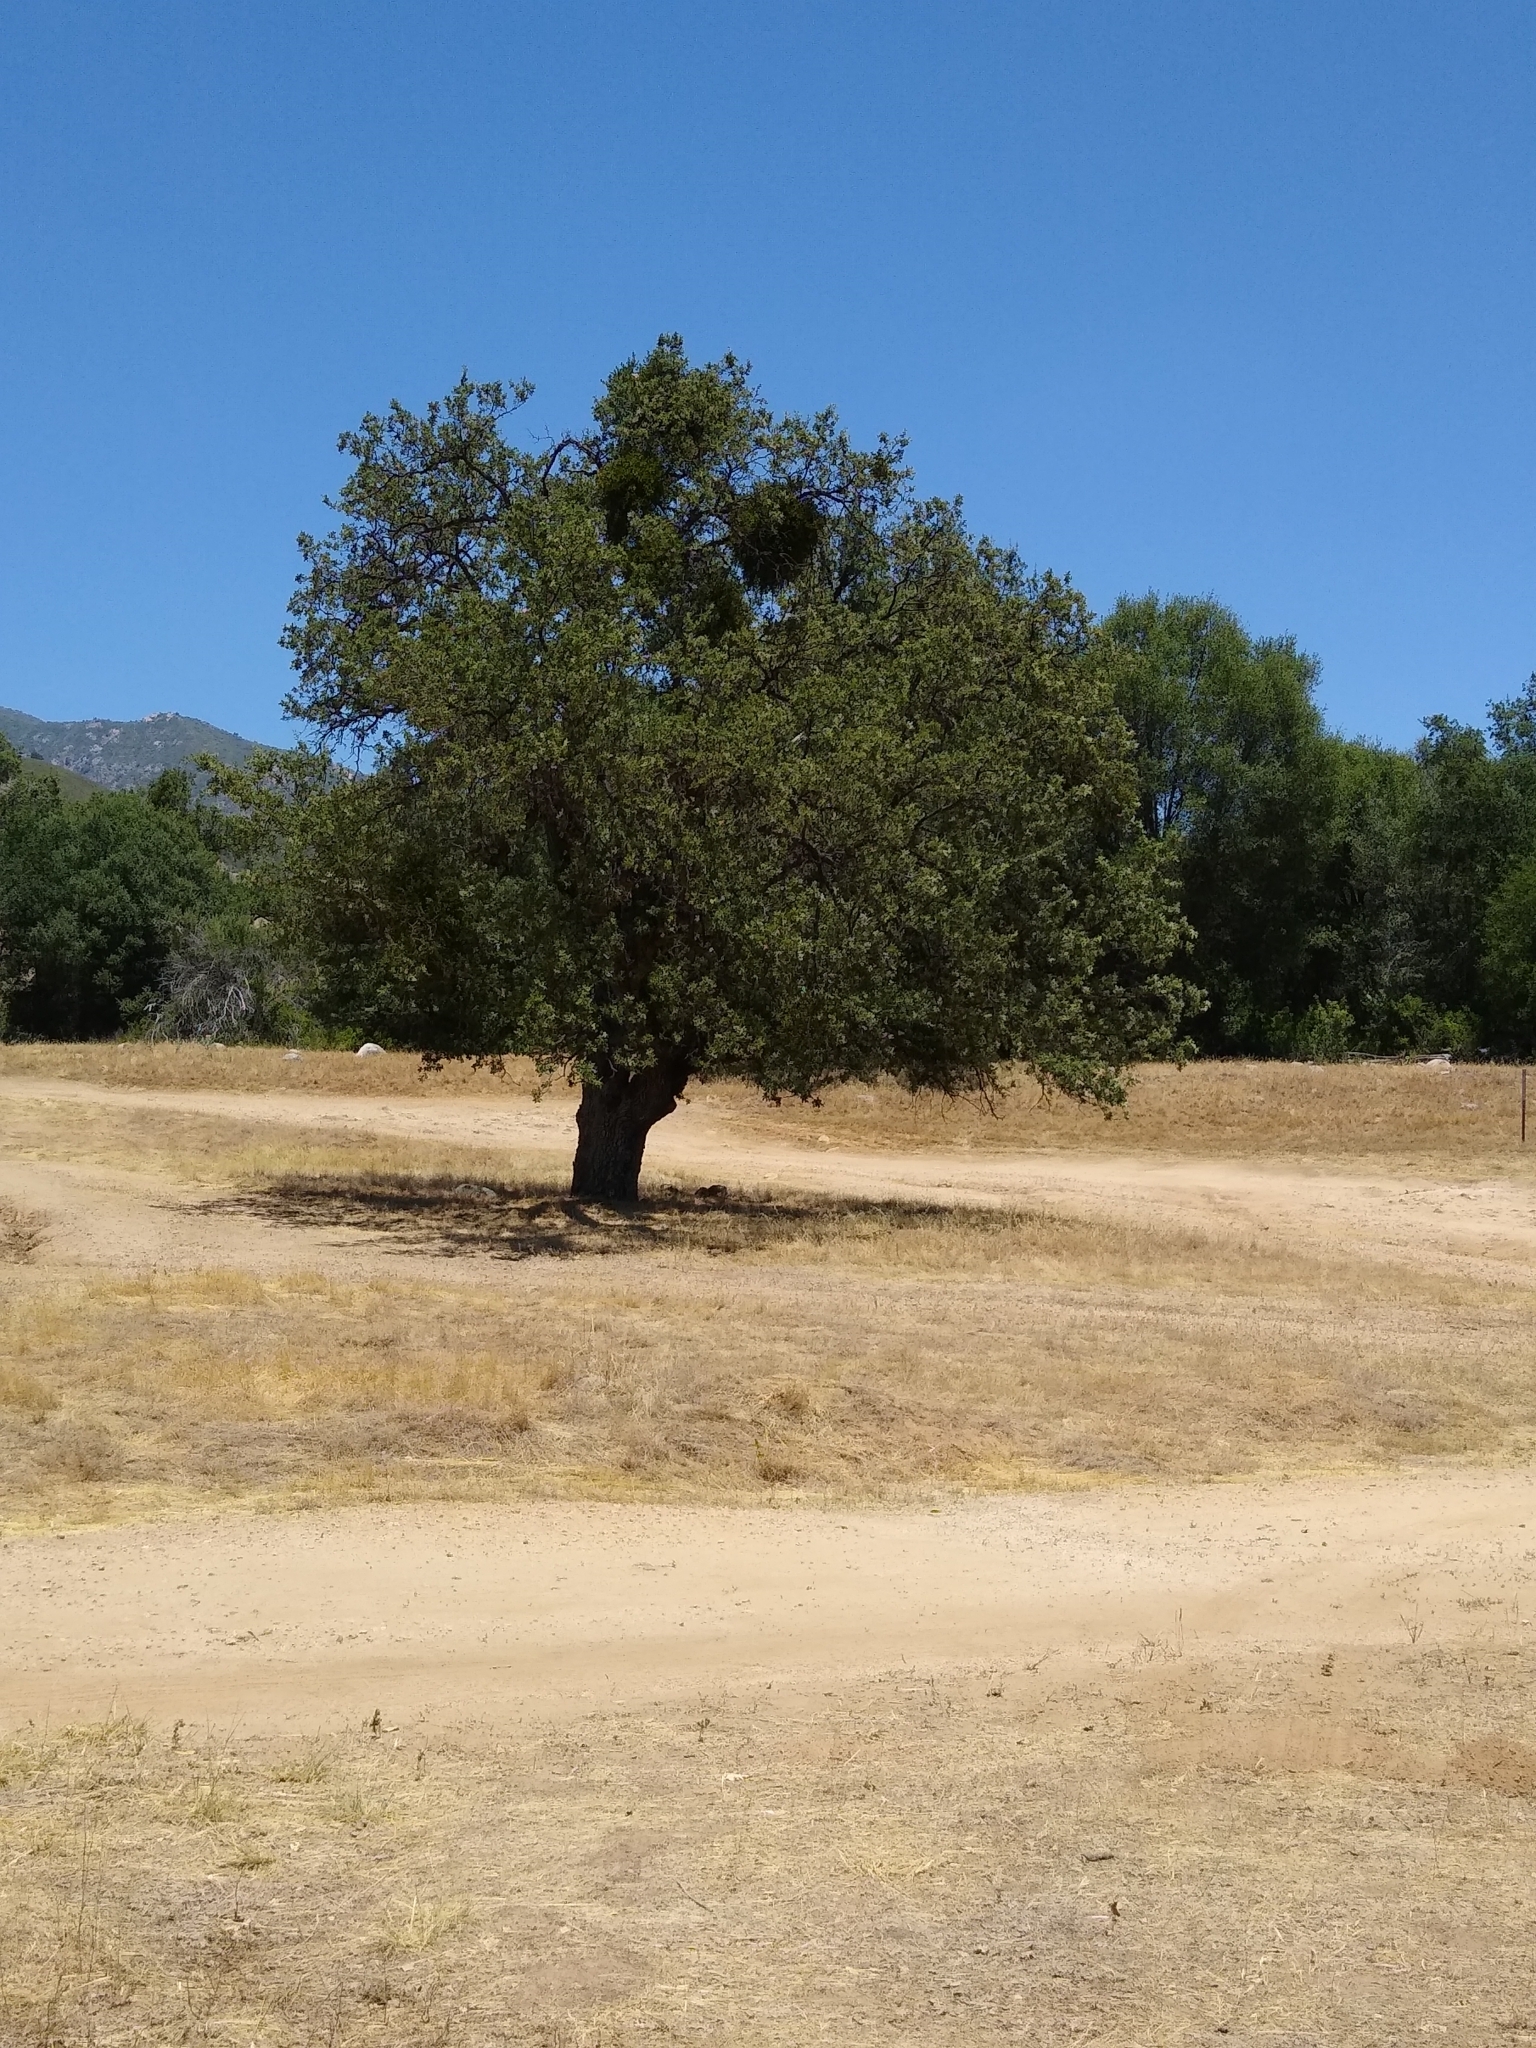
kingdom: Plantae
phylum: Tracheophyta
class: Magnoliopsida
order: Fagales
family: Fagaceae
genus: Quercus
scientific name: Quercus lobata
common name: Valley oak
